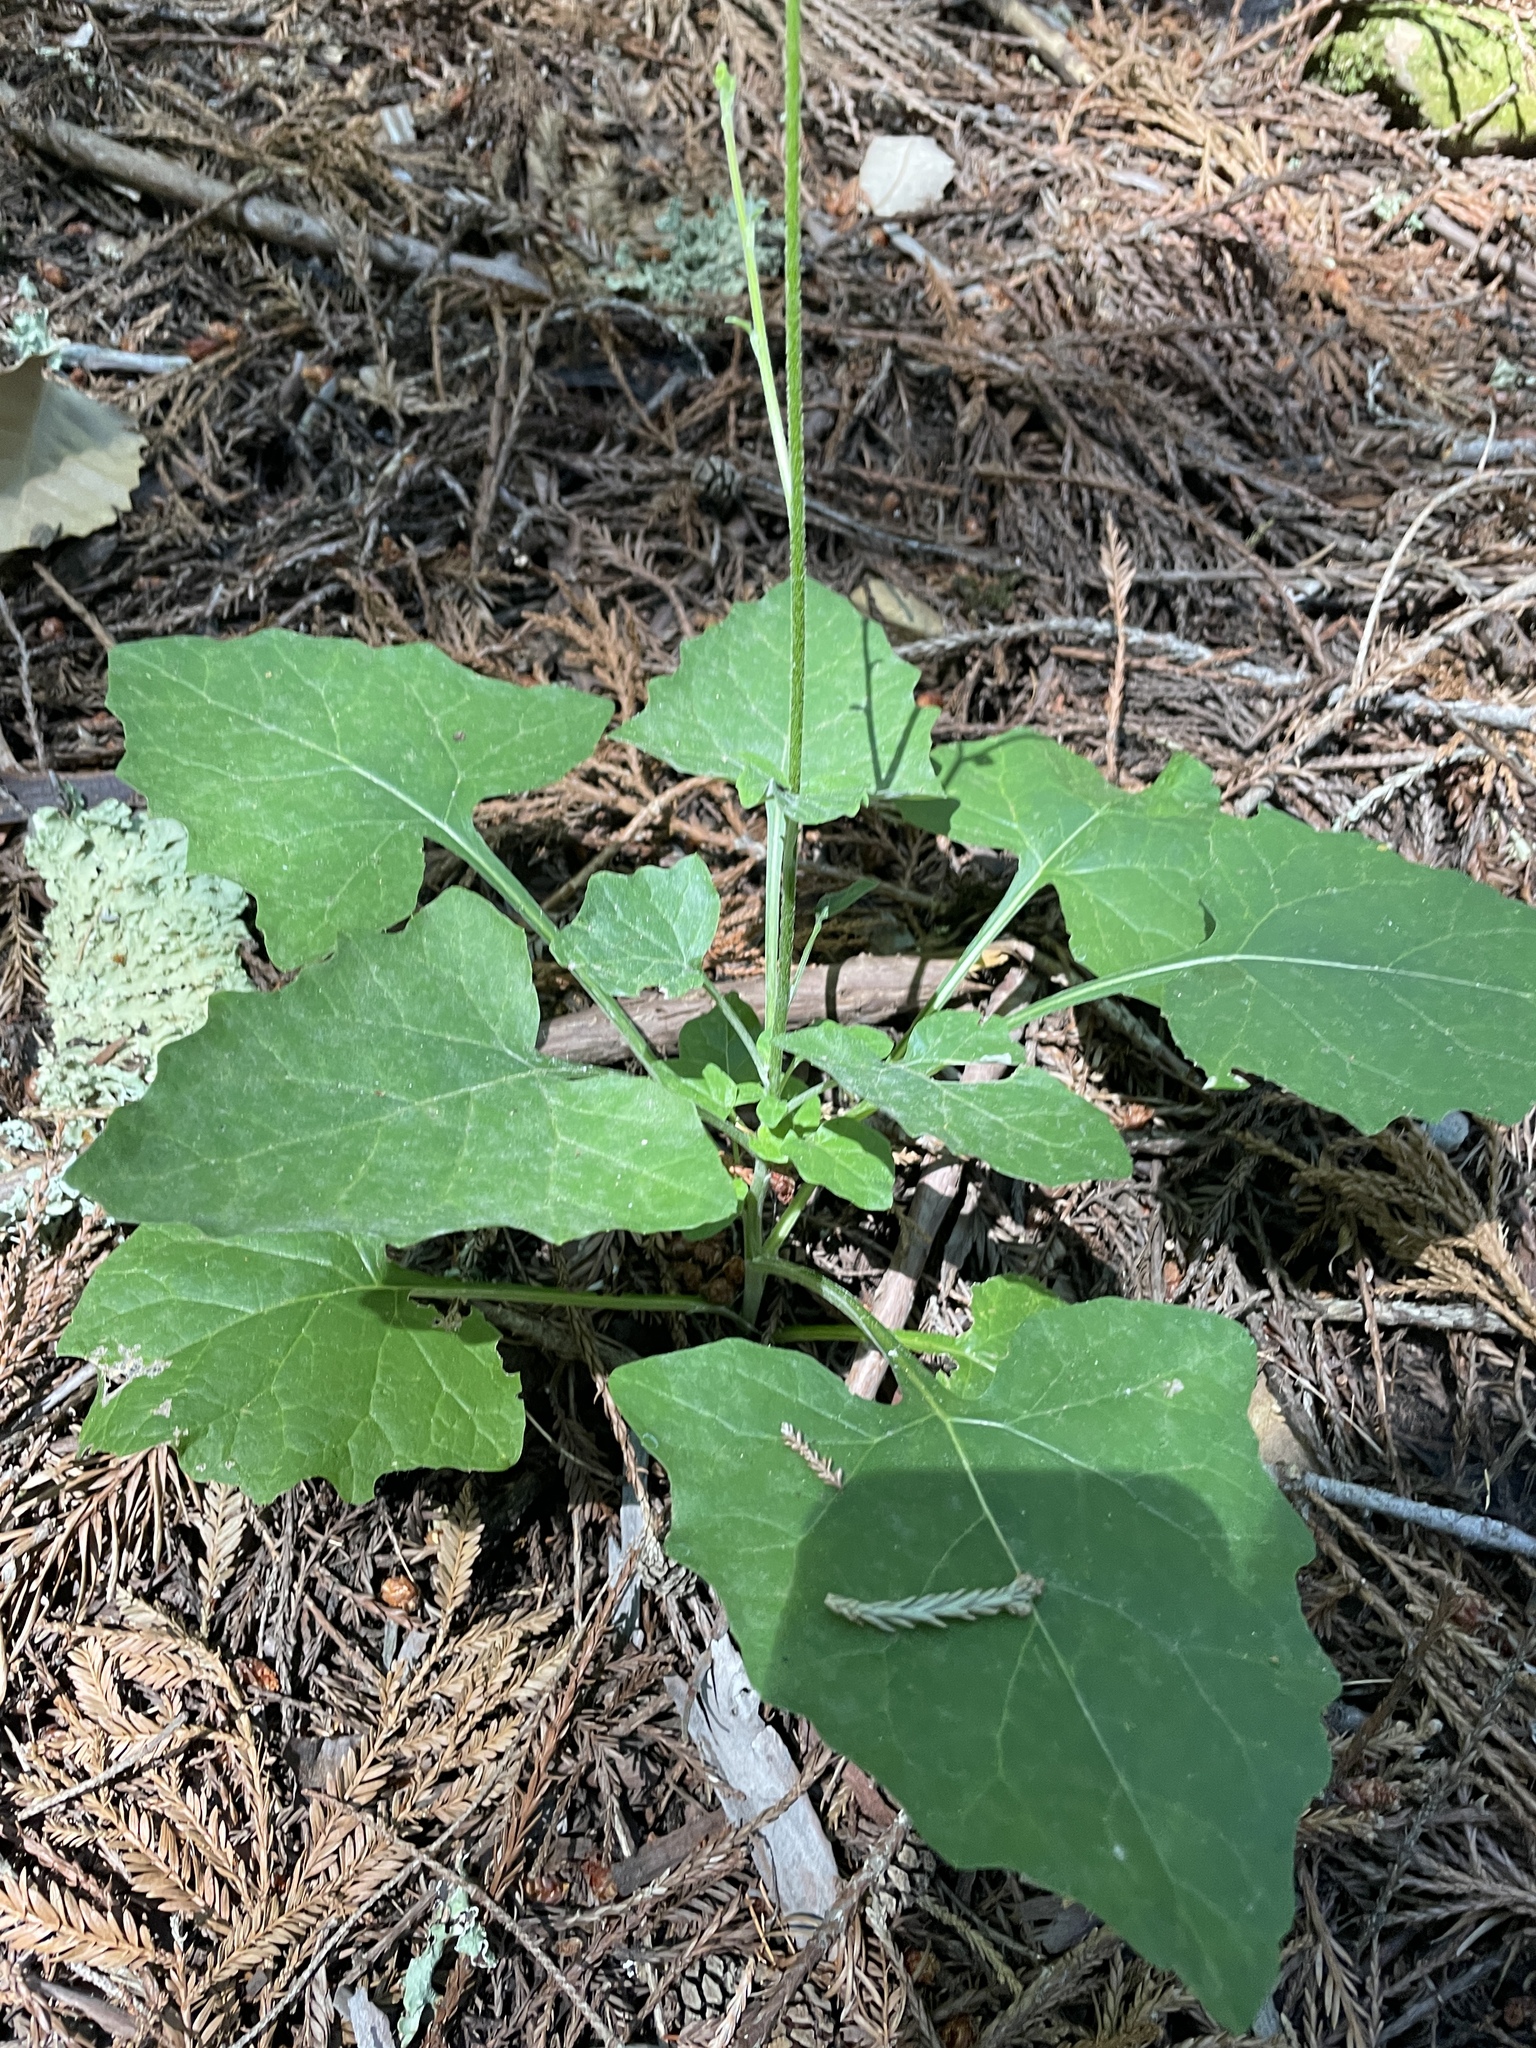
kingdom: Plantae
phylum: Tracheophyta
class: Magnoliopsida
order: Asterales
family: Asteraceae
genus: Adenocaulon
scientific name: Adenocaulon bicolor
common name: Trailplant
